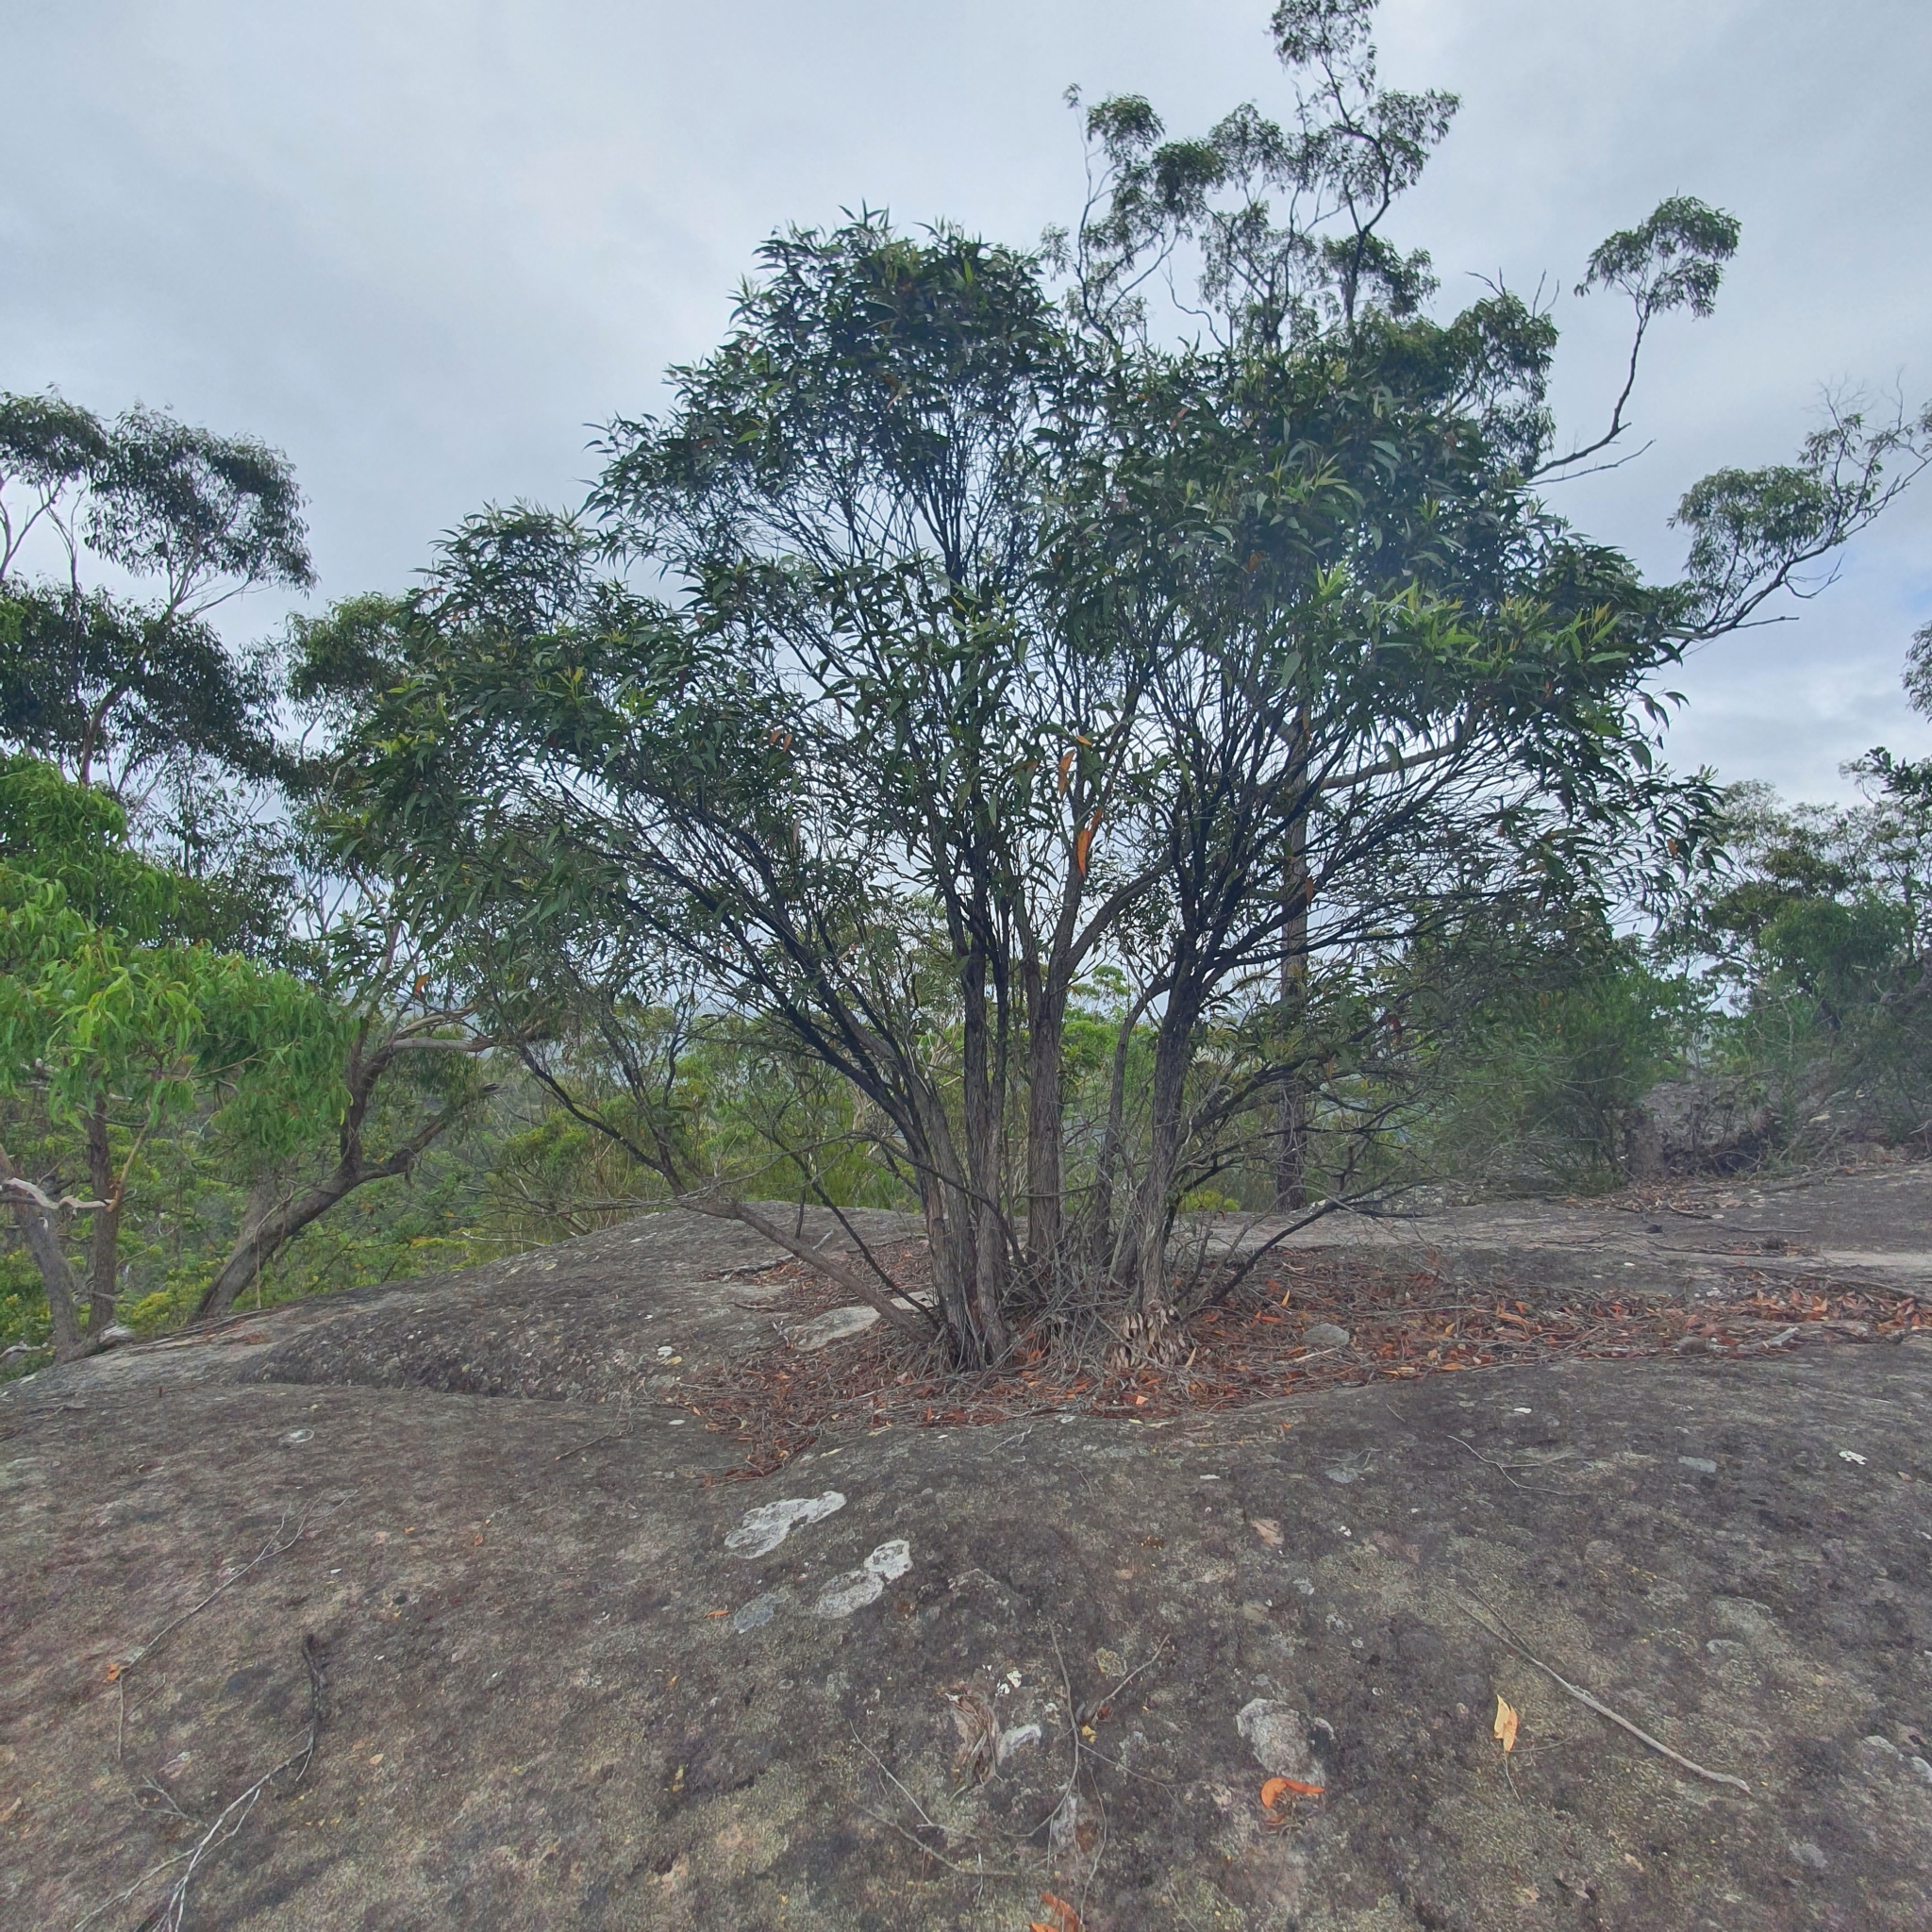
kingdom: Plantae
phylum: Tracheophyta
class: Magnoliopsida
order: Myrtales
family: Myrtaceae
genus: Eucalyptus
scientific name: Eucalyptus umbra
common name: White-mahogany
